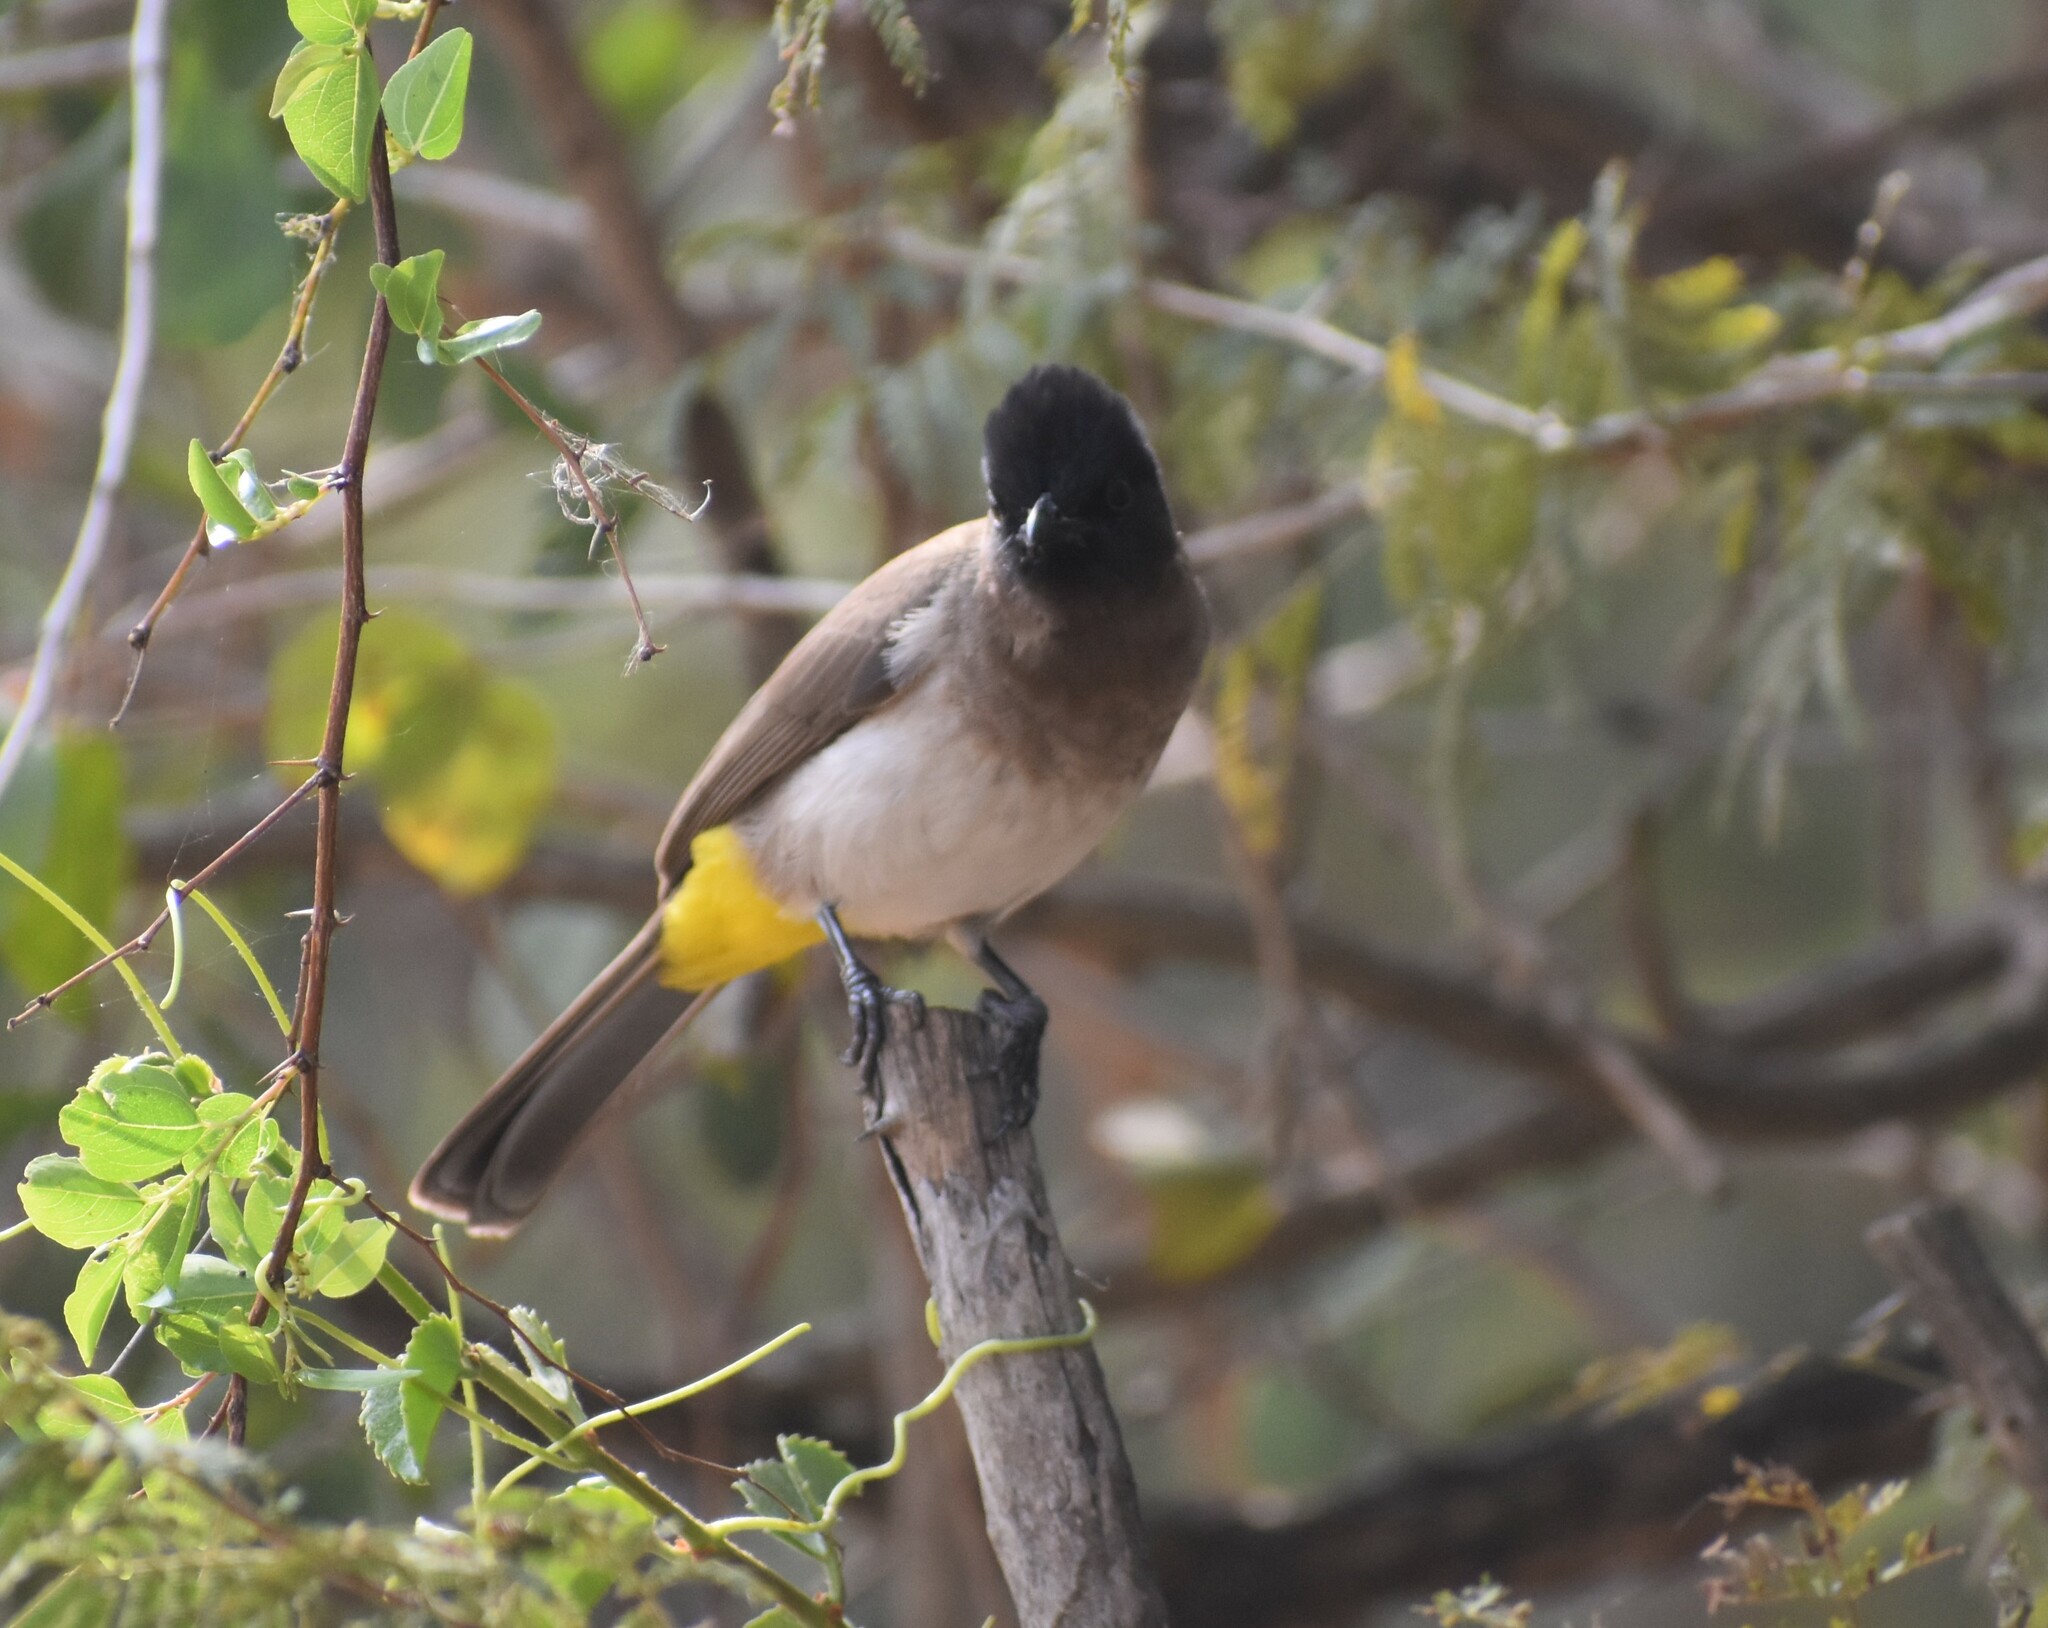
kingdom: Animalia
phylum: Chordata
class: Aves
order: Passeriformes
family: Pycnonotidae
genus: Pycnonotus
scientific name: Pycnonotus barbatus
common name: Common bulbul
